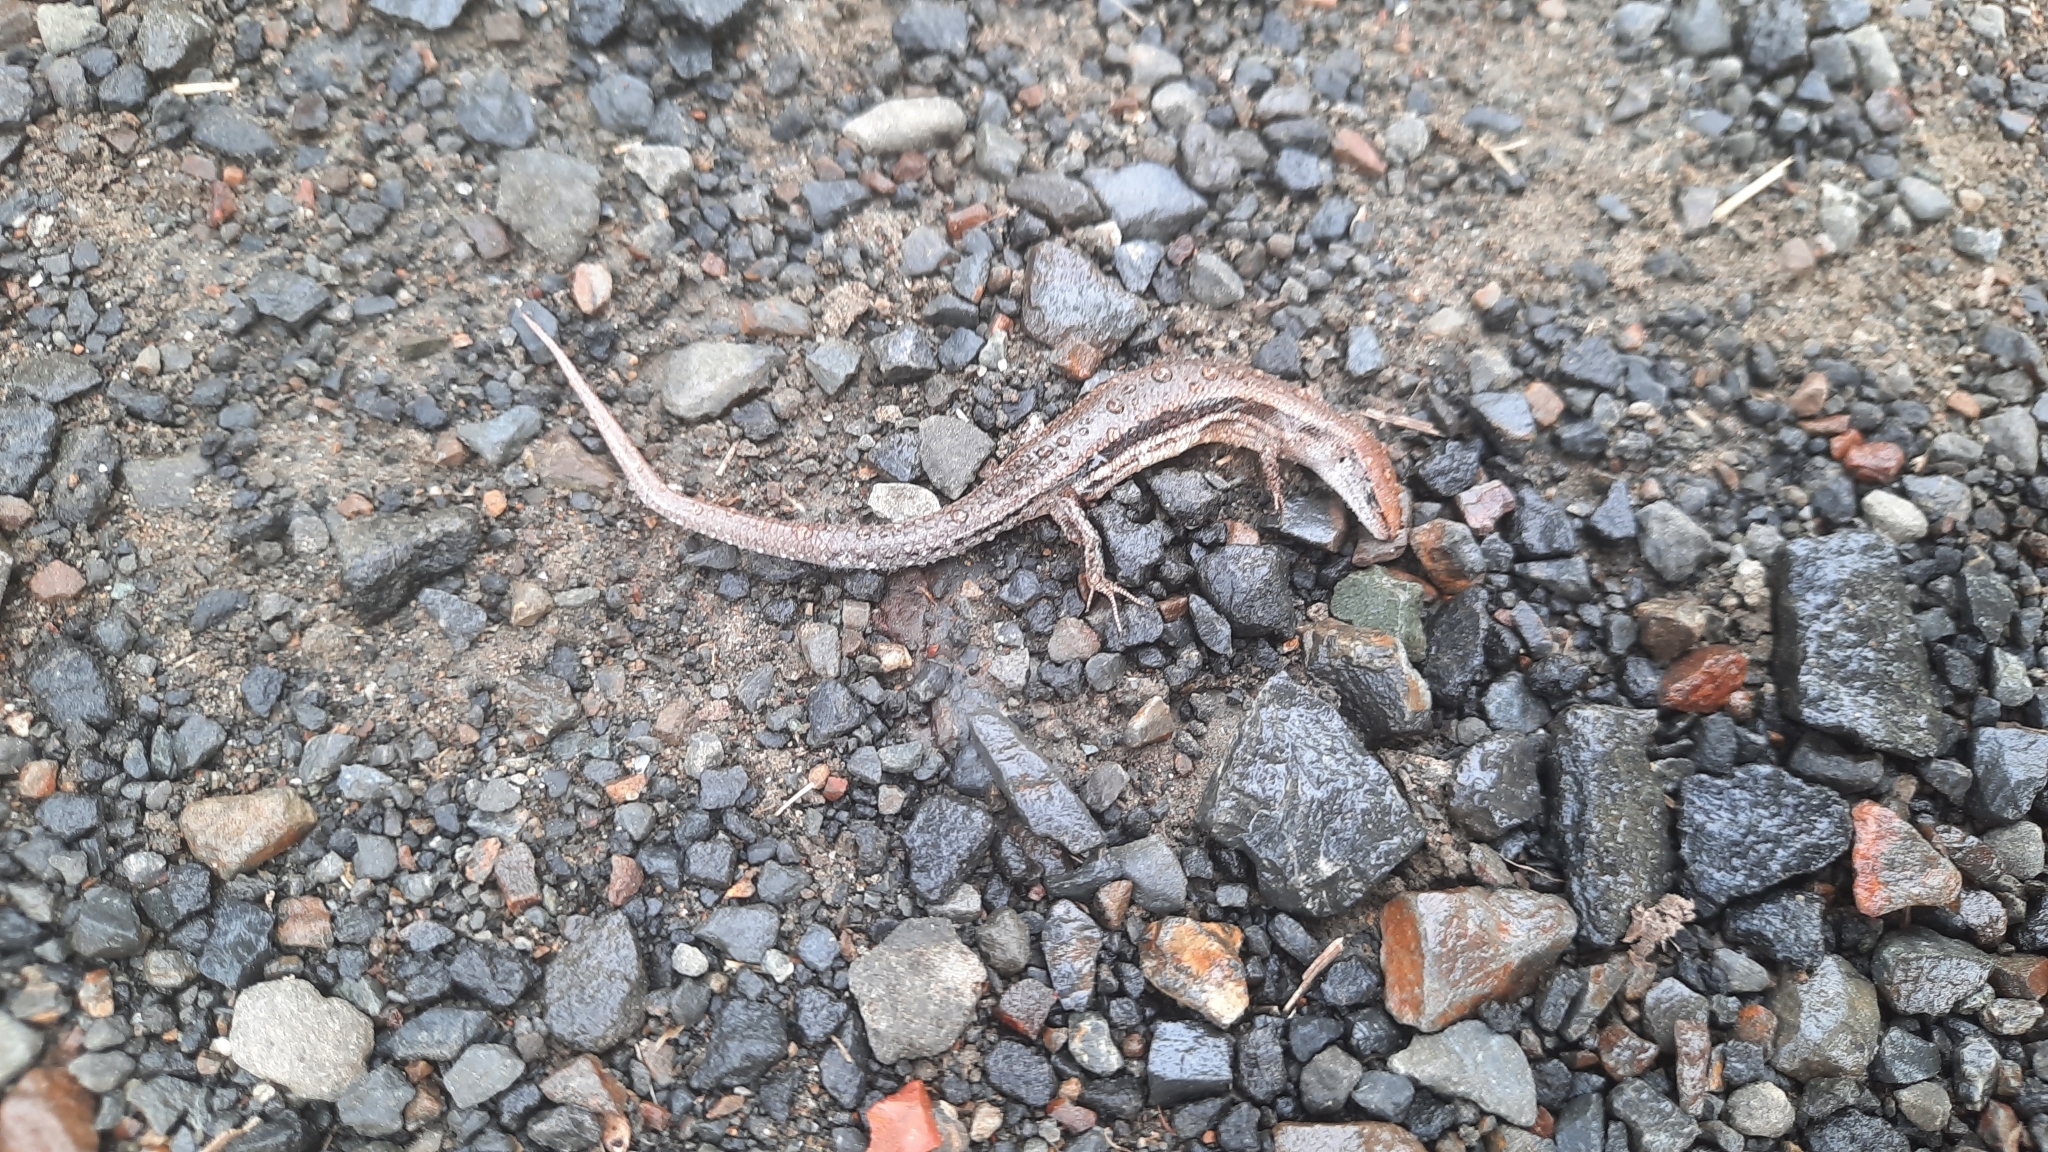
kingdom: Animalia
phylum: Chordata
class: Squamata
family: Scincidae
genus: Lampropholis
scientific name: Lampropholis delicata
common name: Plague skink
